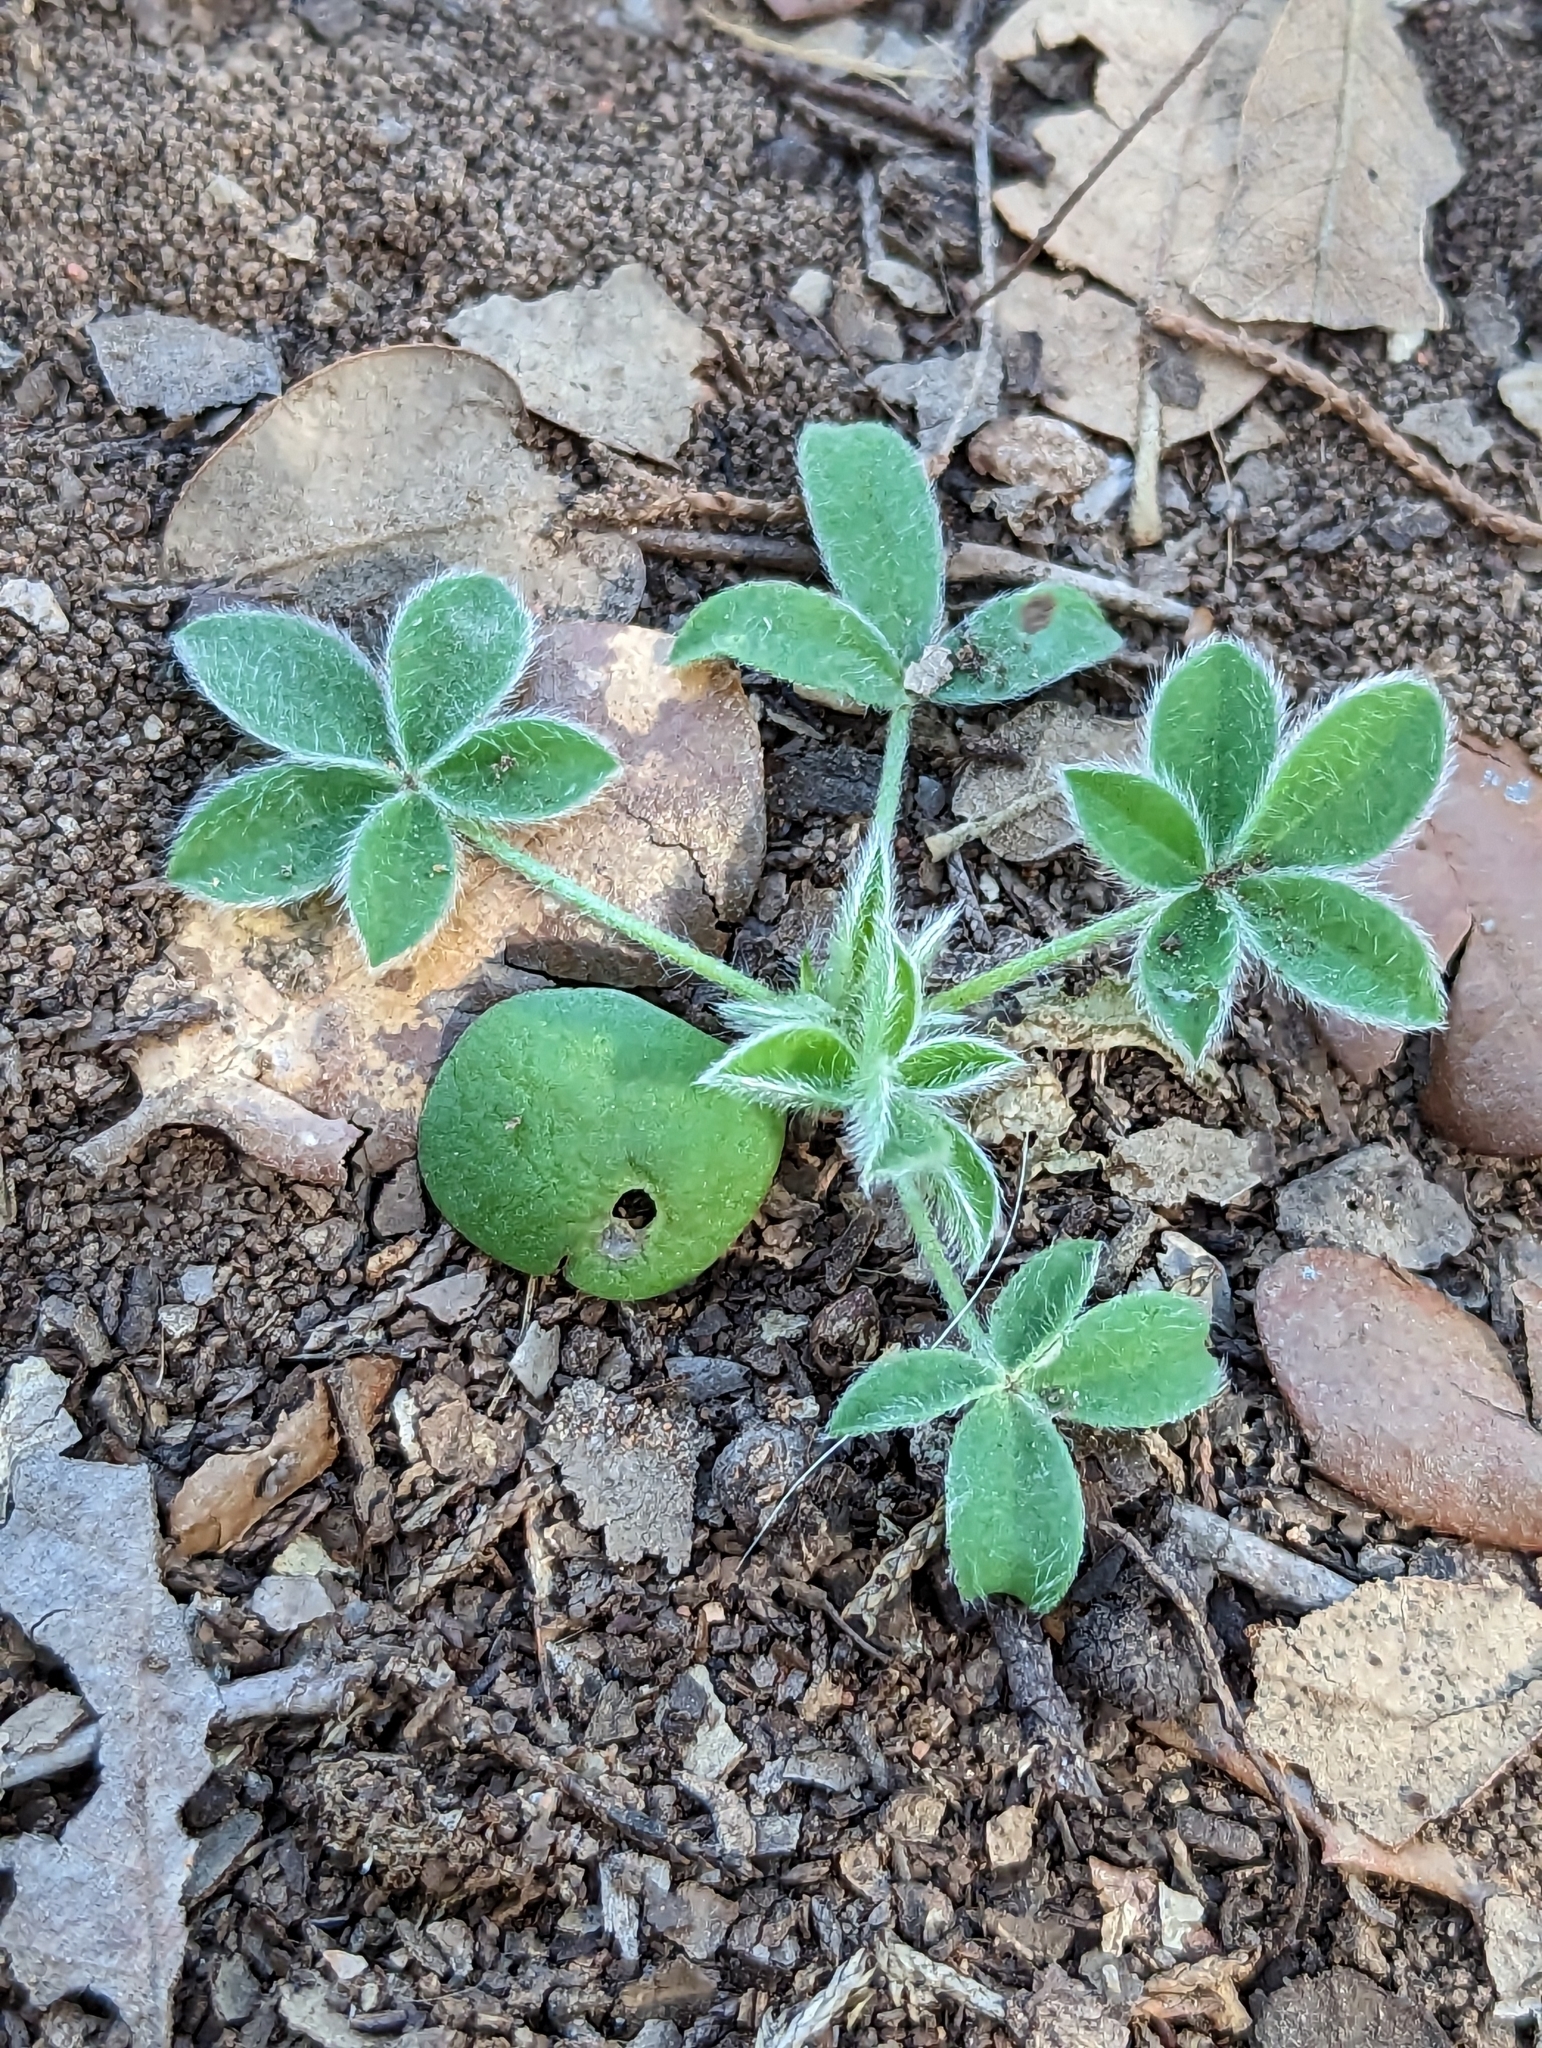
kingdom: Plantae
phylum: Tracheophyta
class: Magnoliopsida
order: Fabales
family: Fabaceae
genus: Lupinus
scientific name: Lupinus texensis
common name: Texas bluebonnet
